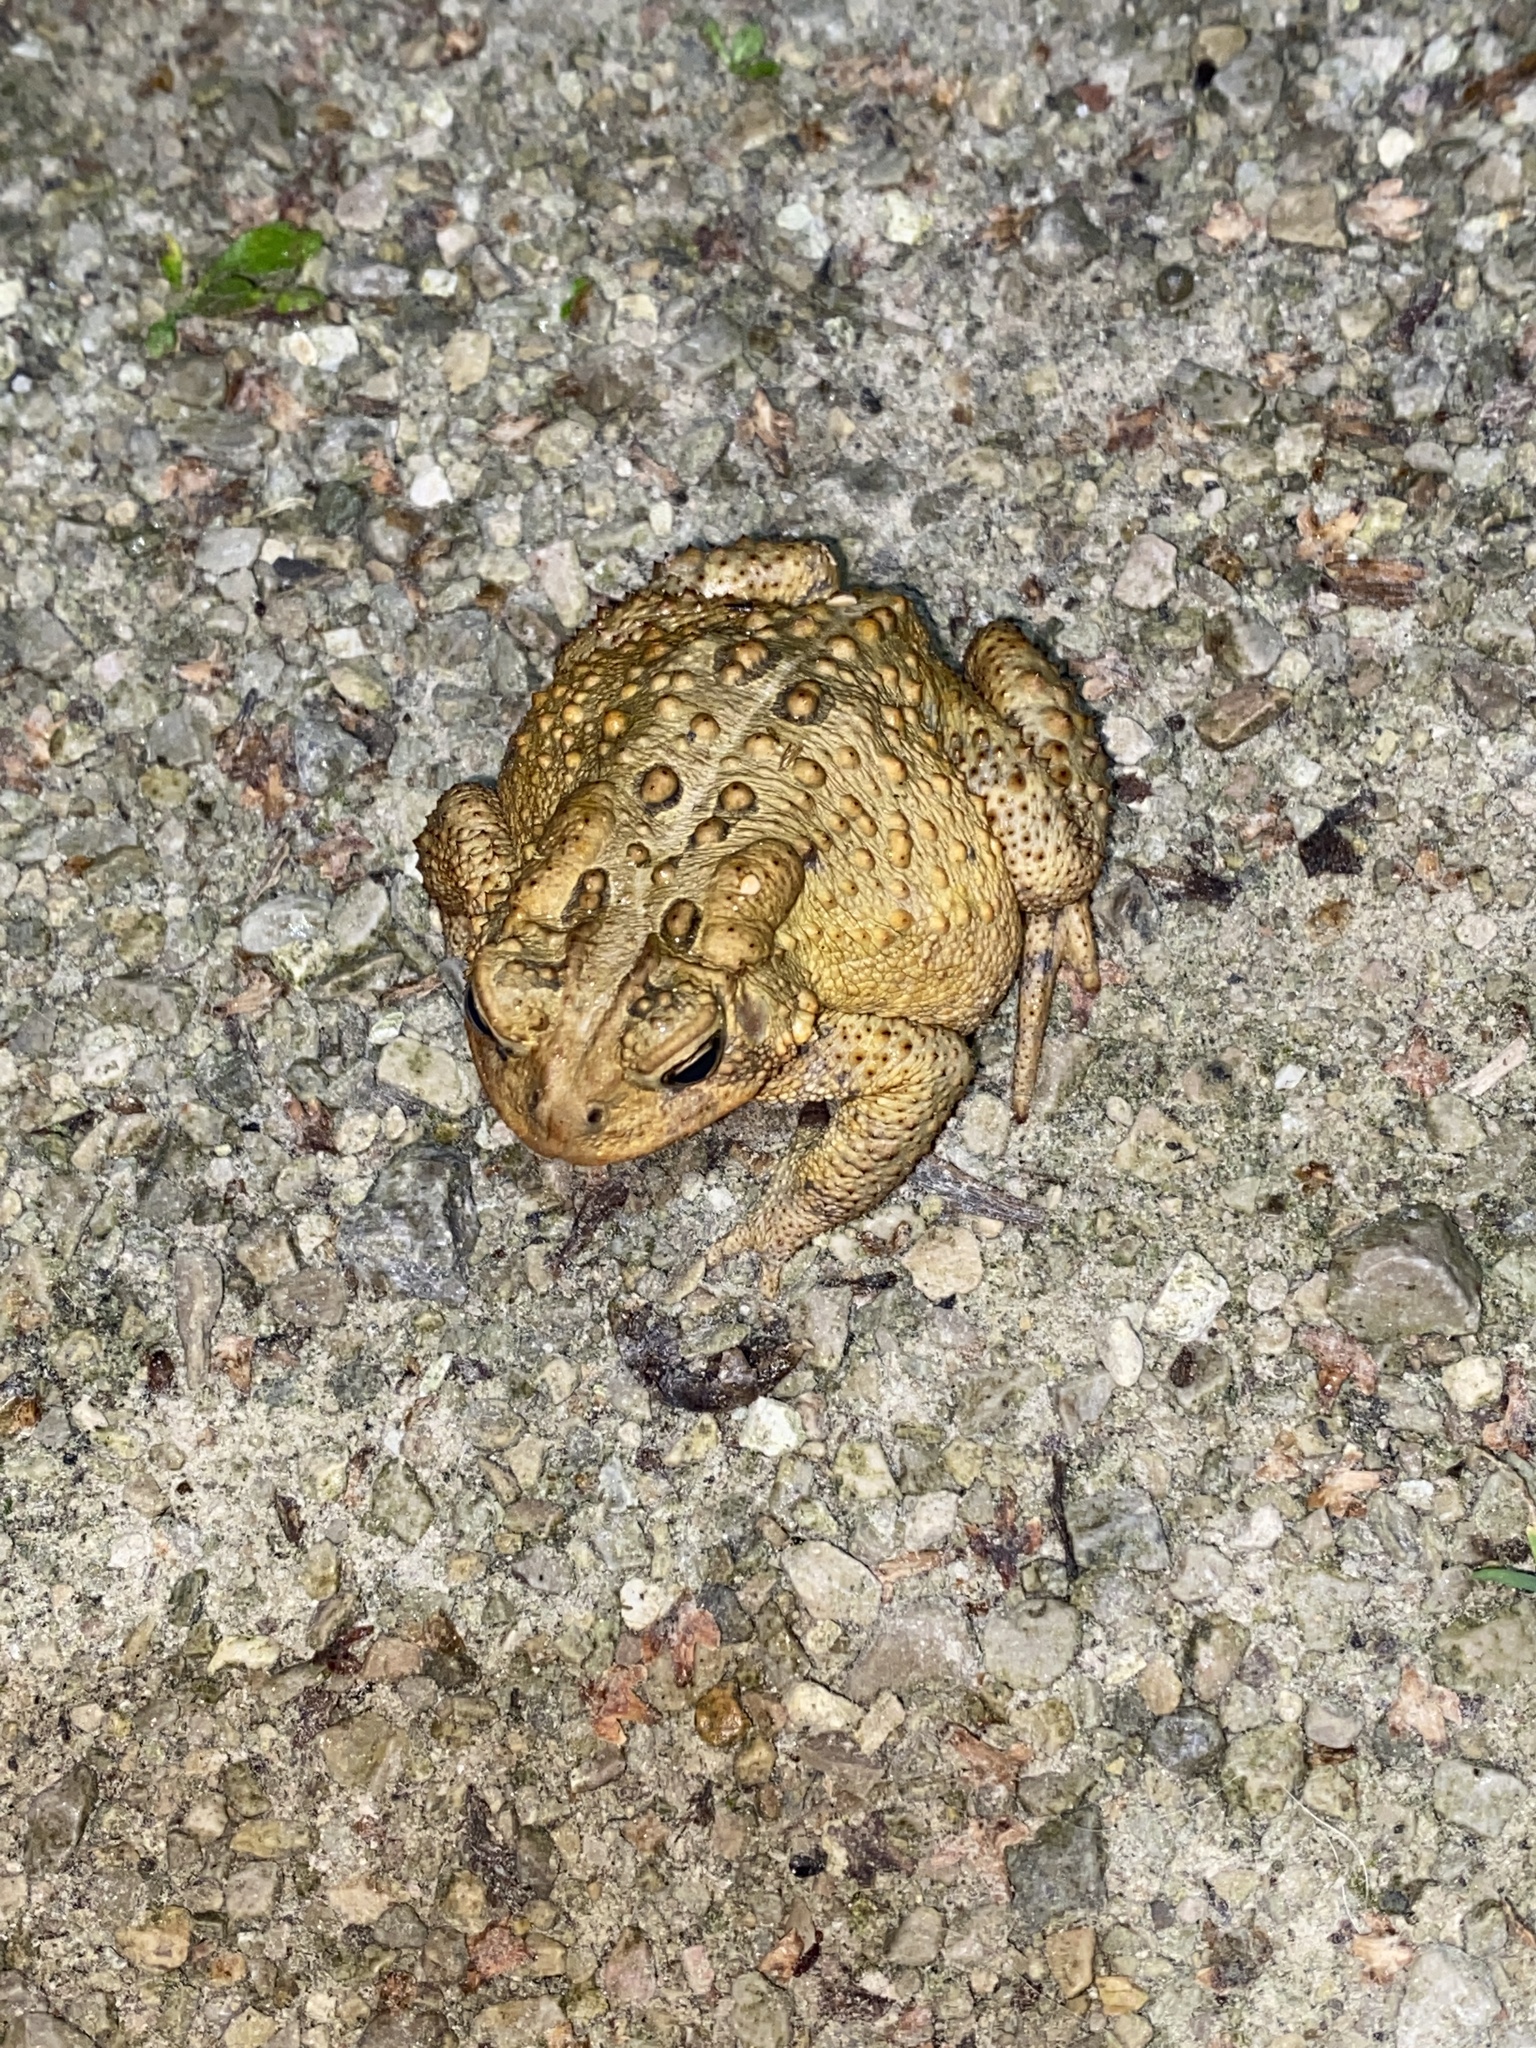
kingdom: Animalia
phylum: Chordata
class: Amphibia
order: Anura
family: Bufonidae
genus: Anaxyrus
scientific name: Anaxyrus americanus
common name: American toad
